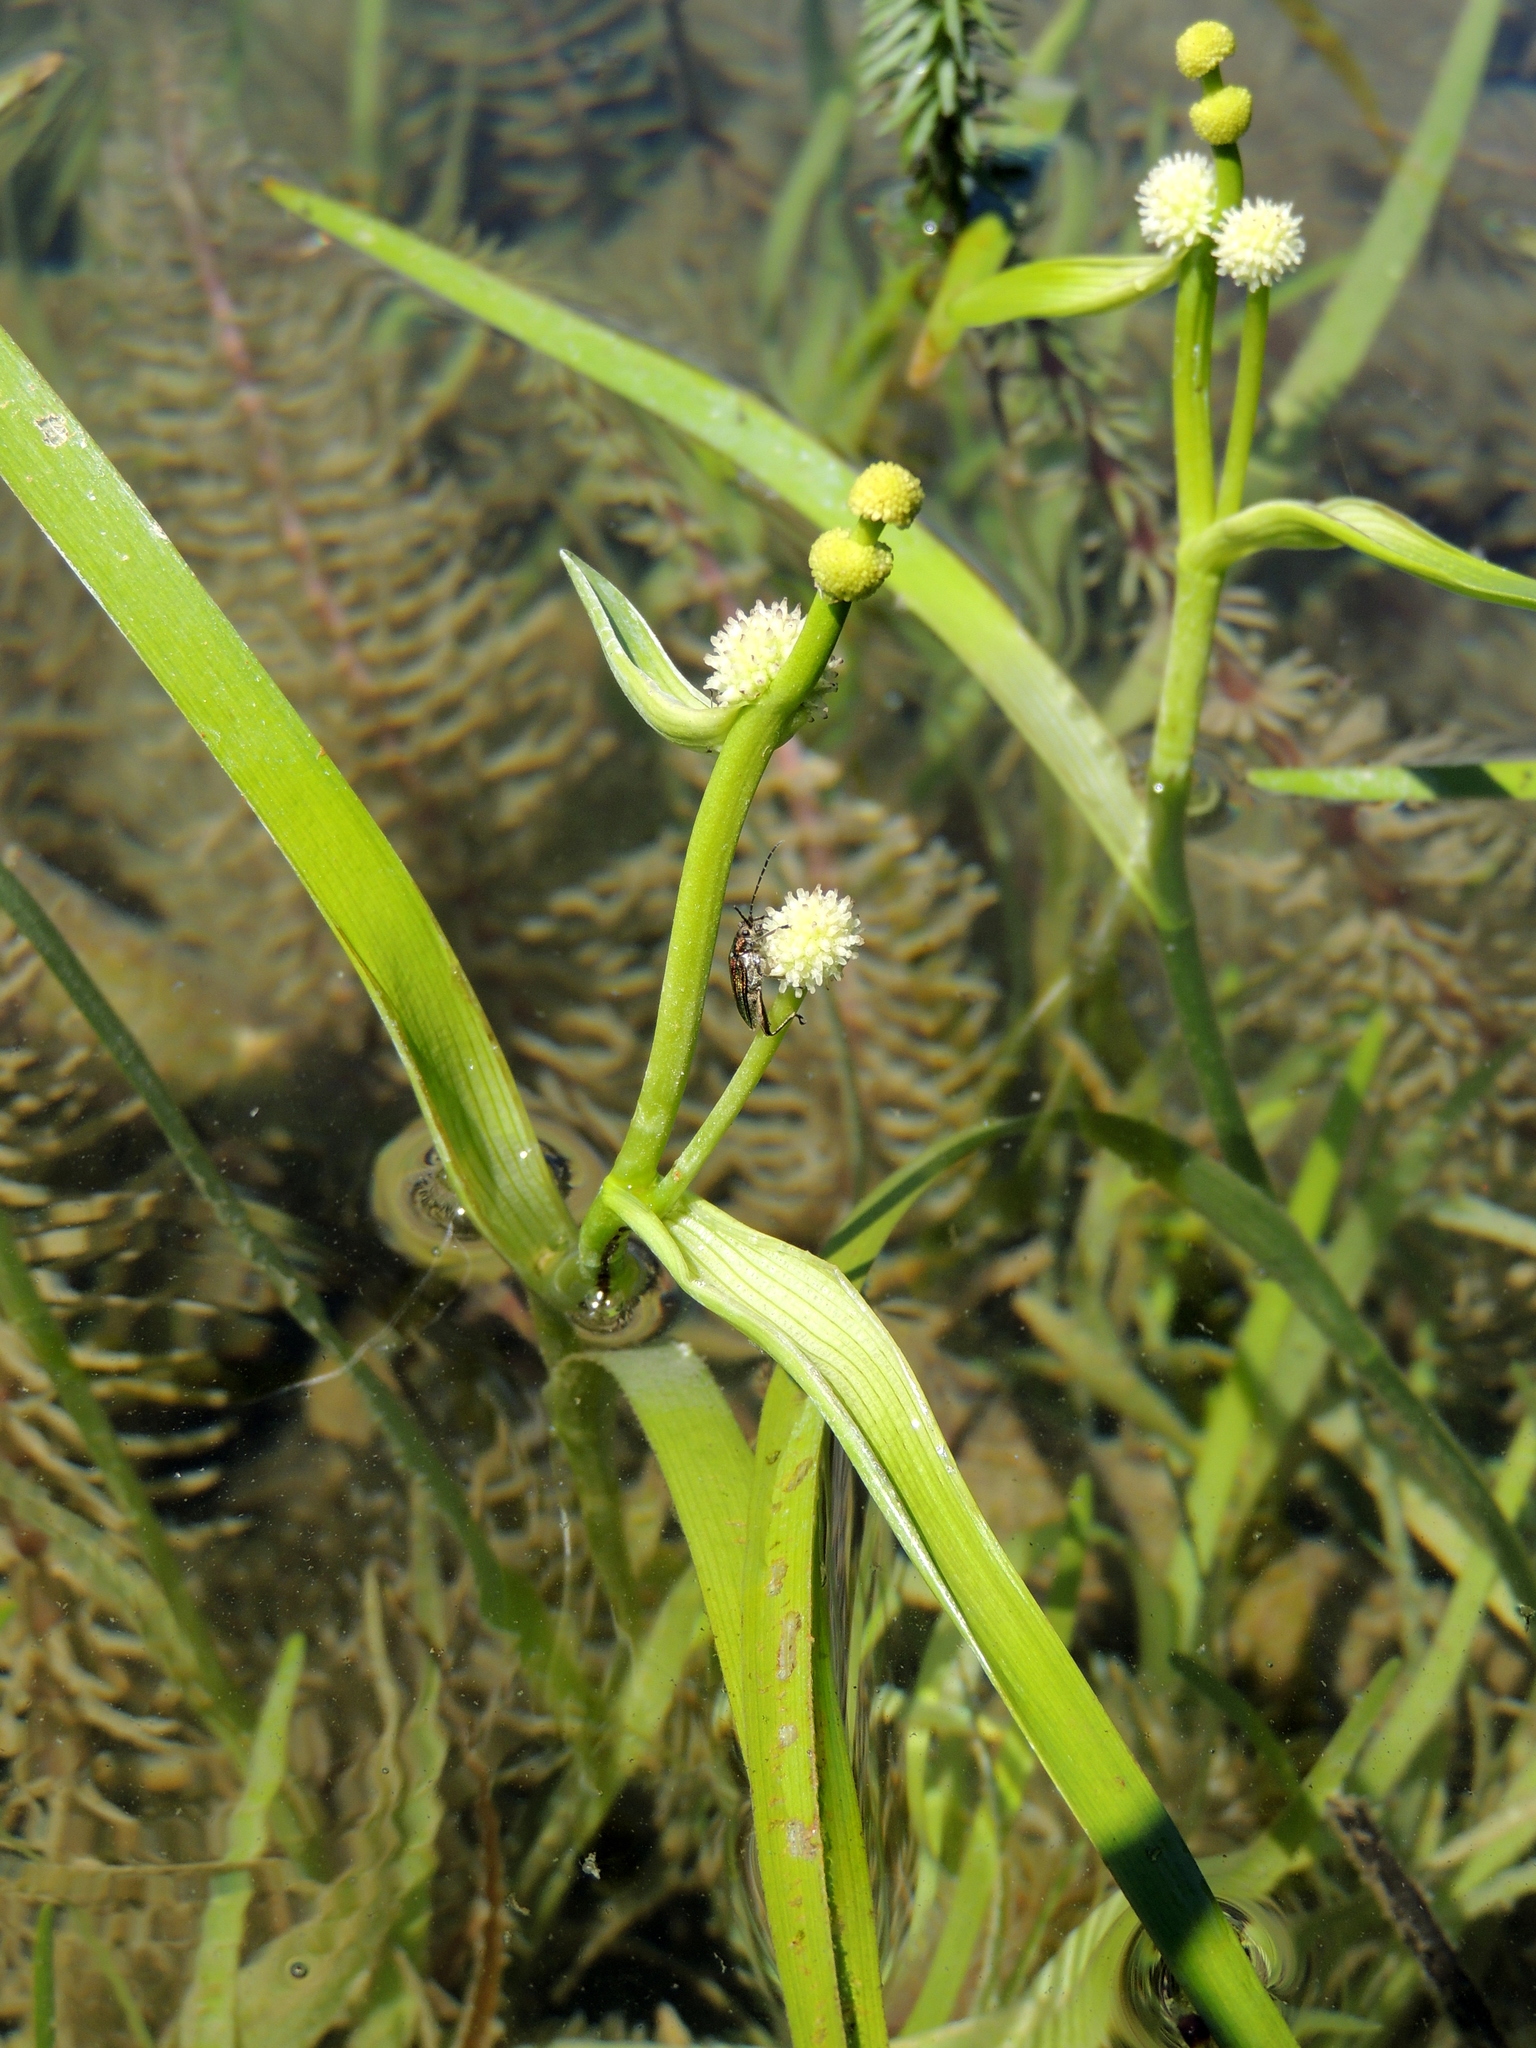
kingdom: Plantae
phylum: Tracheophyta
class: Liliopsida
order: Poales
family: Typhaceae
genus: Sparganium
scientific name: Sparganium natans
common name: Least bur-reed
